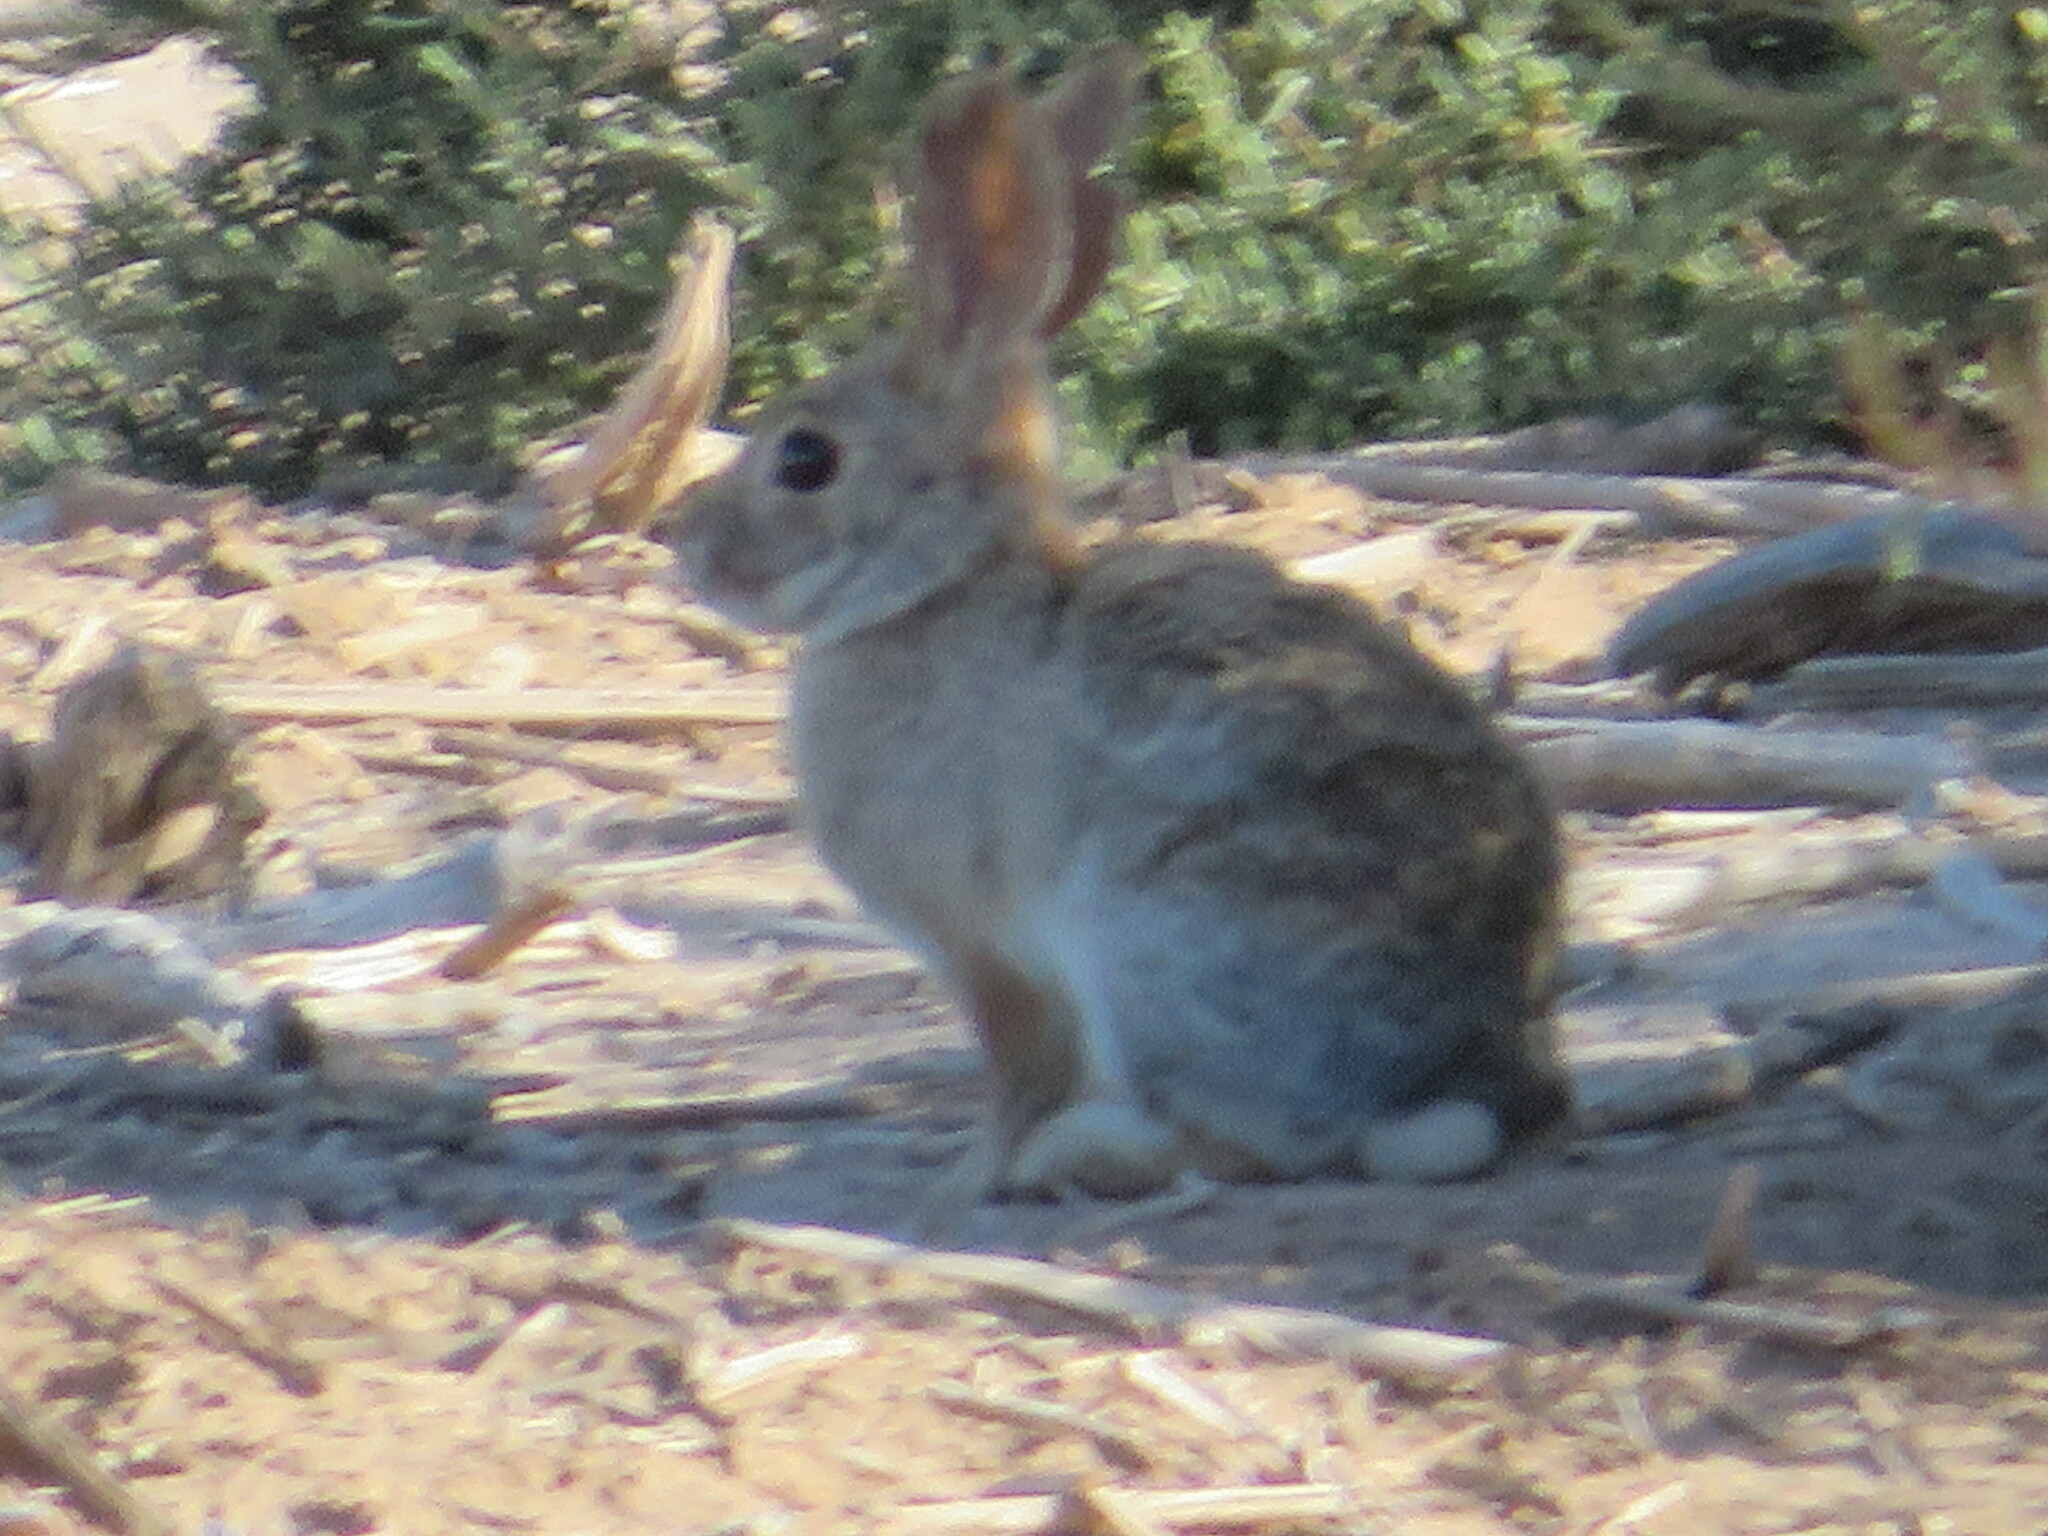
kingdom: Animalia
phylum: Chordata
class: Mammalia
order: Lagomorpha
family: Leporidae
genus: Sylvilagus
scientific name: Sylvilagus audubonii
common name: Desert cottontail
